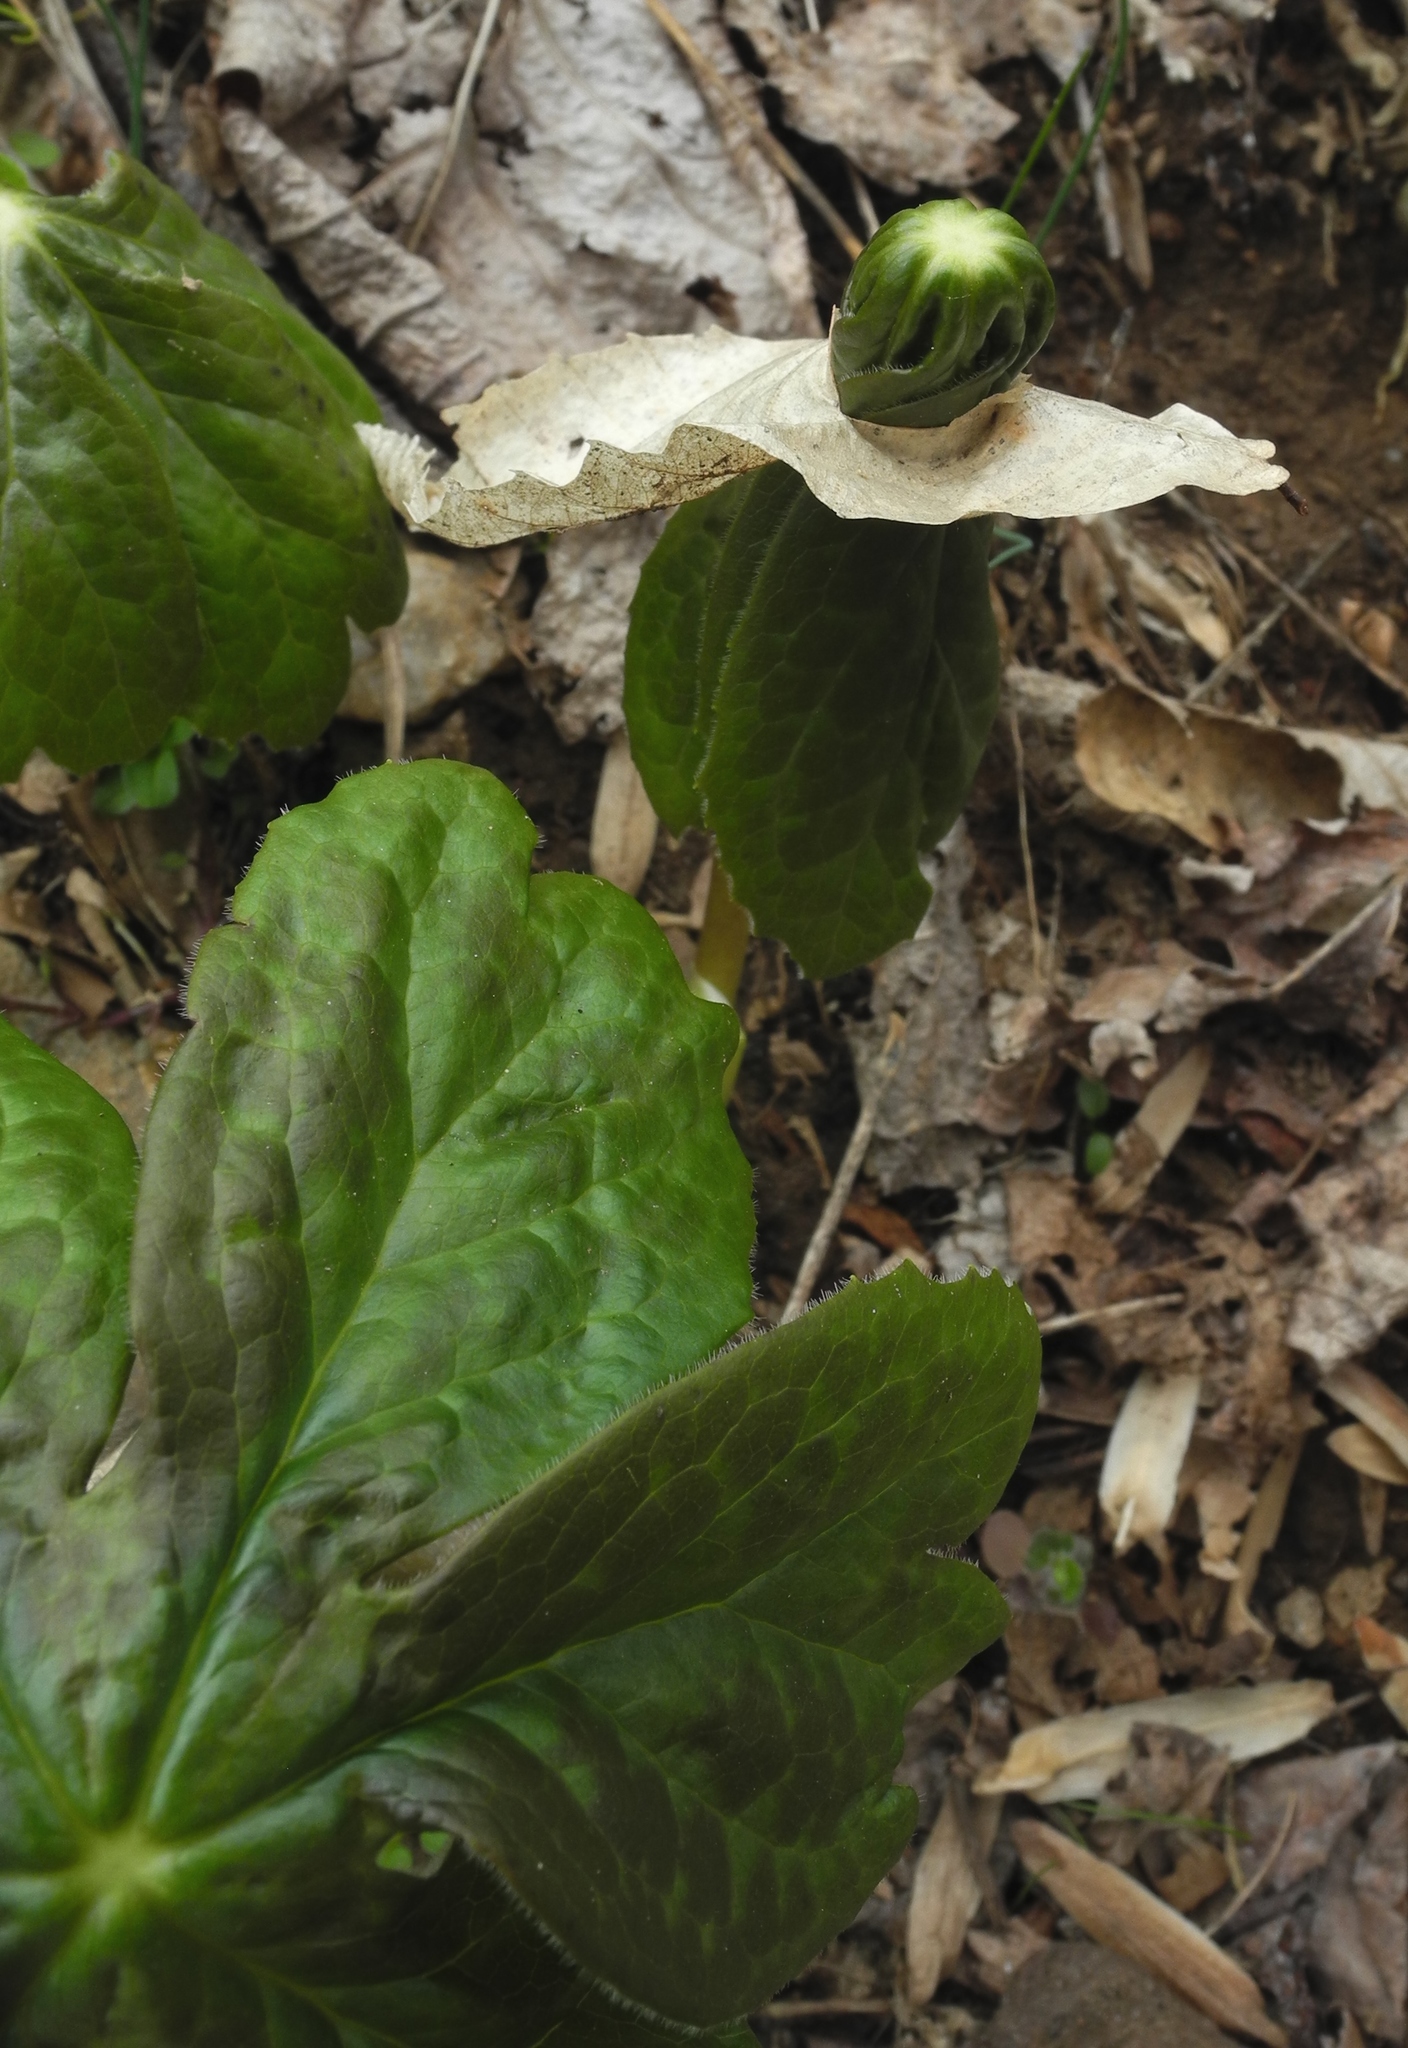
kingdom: Plantae
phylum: Tracheophyta
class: Magnoliopsida
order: Ranunculales
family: Berberidaceae
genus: Podophyllum
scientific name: Podophyllum peltatum
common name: Wild mandrake
